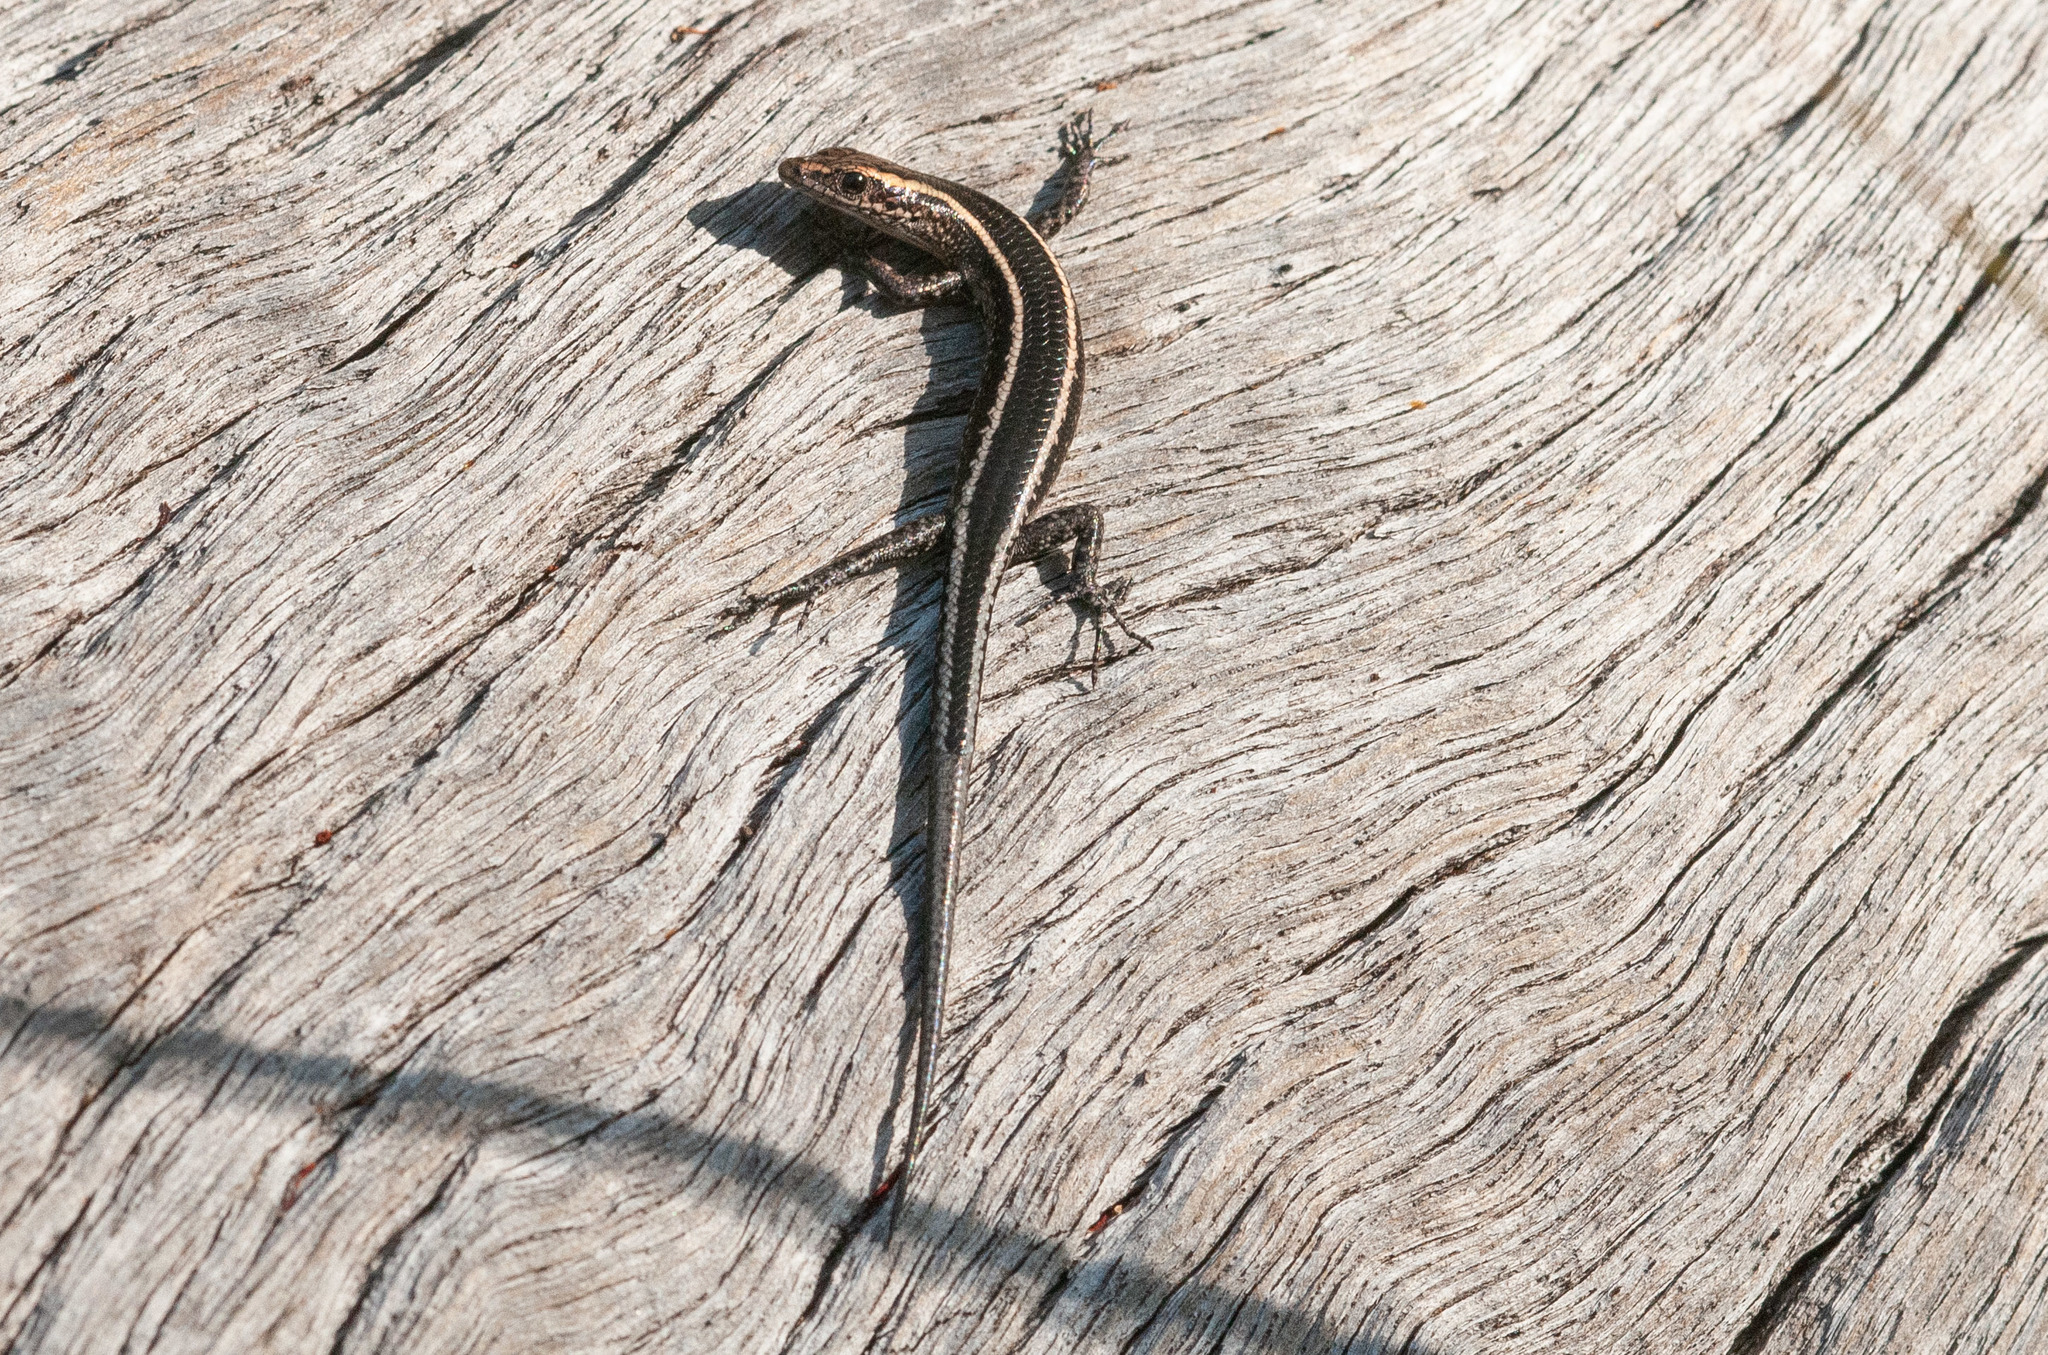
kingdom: Animalia
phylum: Chordata
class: Squamata
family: Scincidae
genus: Cryptoblepharus
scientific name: Cryptoblepharus pulcher
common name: Elegant snake-eyed skink
